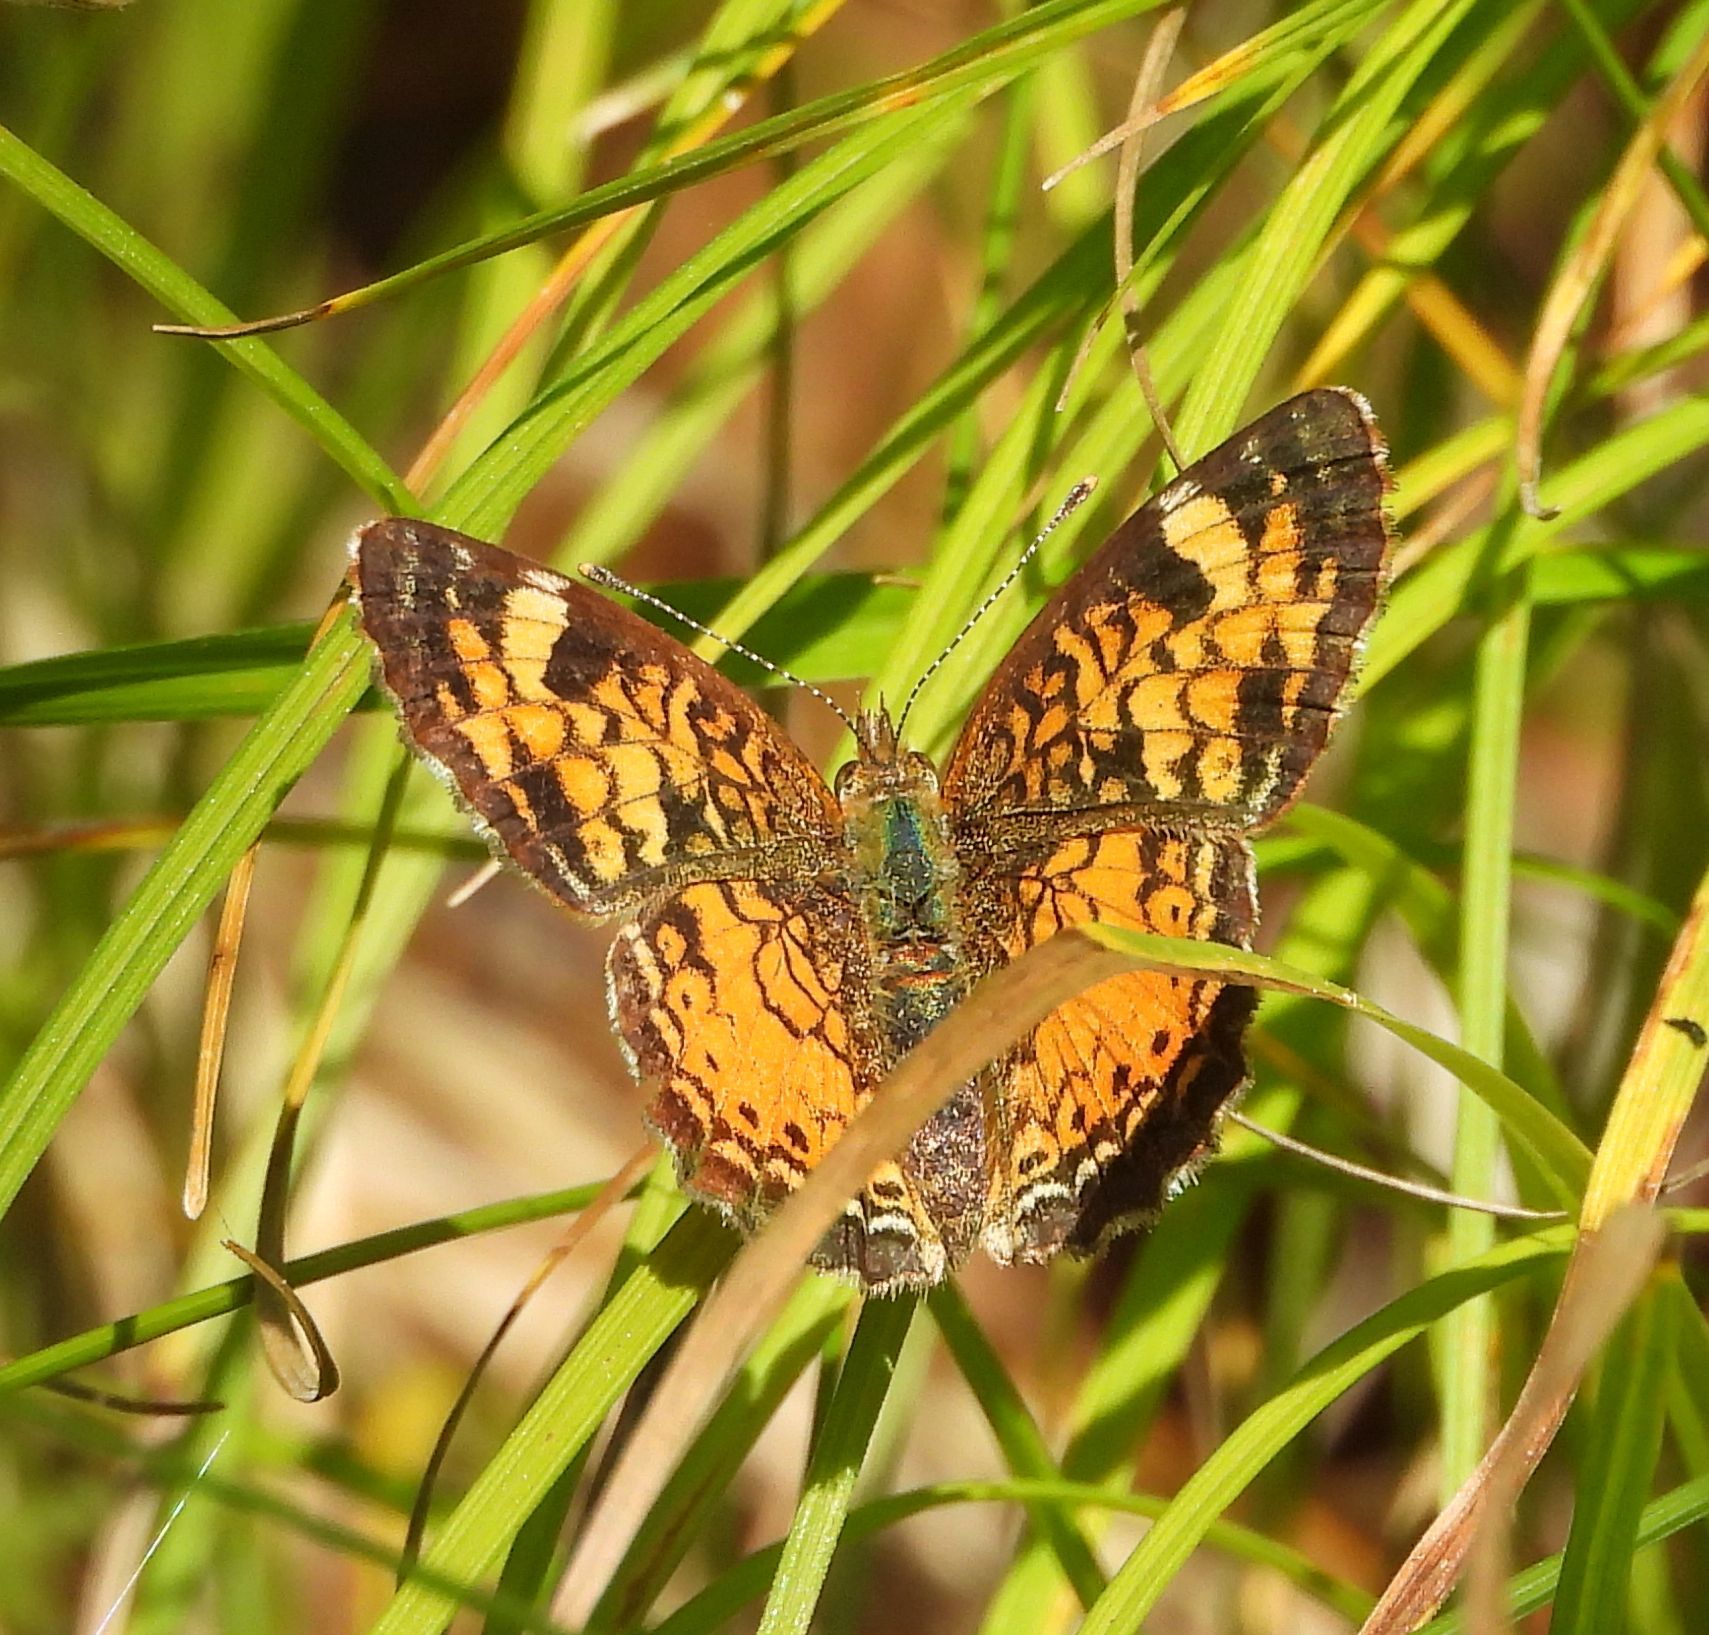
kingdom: Animalia
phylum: Arthropoda
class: Insecta
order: Lepidoptera
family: Nymphalidae
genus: Phyciodes
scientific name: Phyciodes tharos
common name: Pearl crescent
